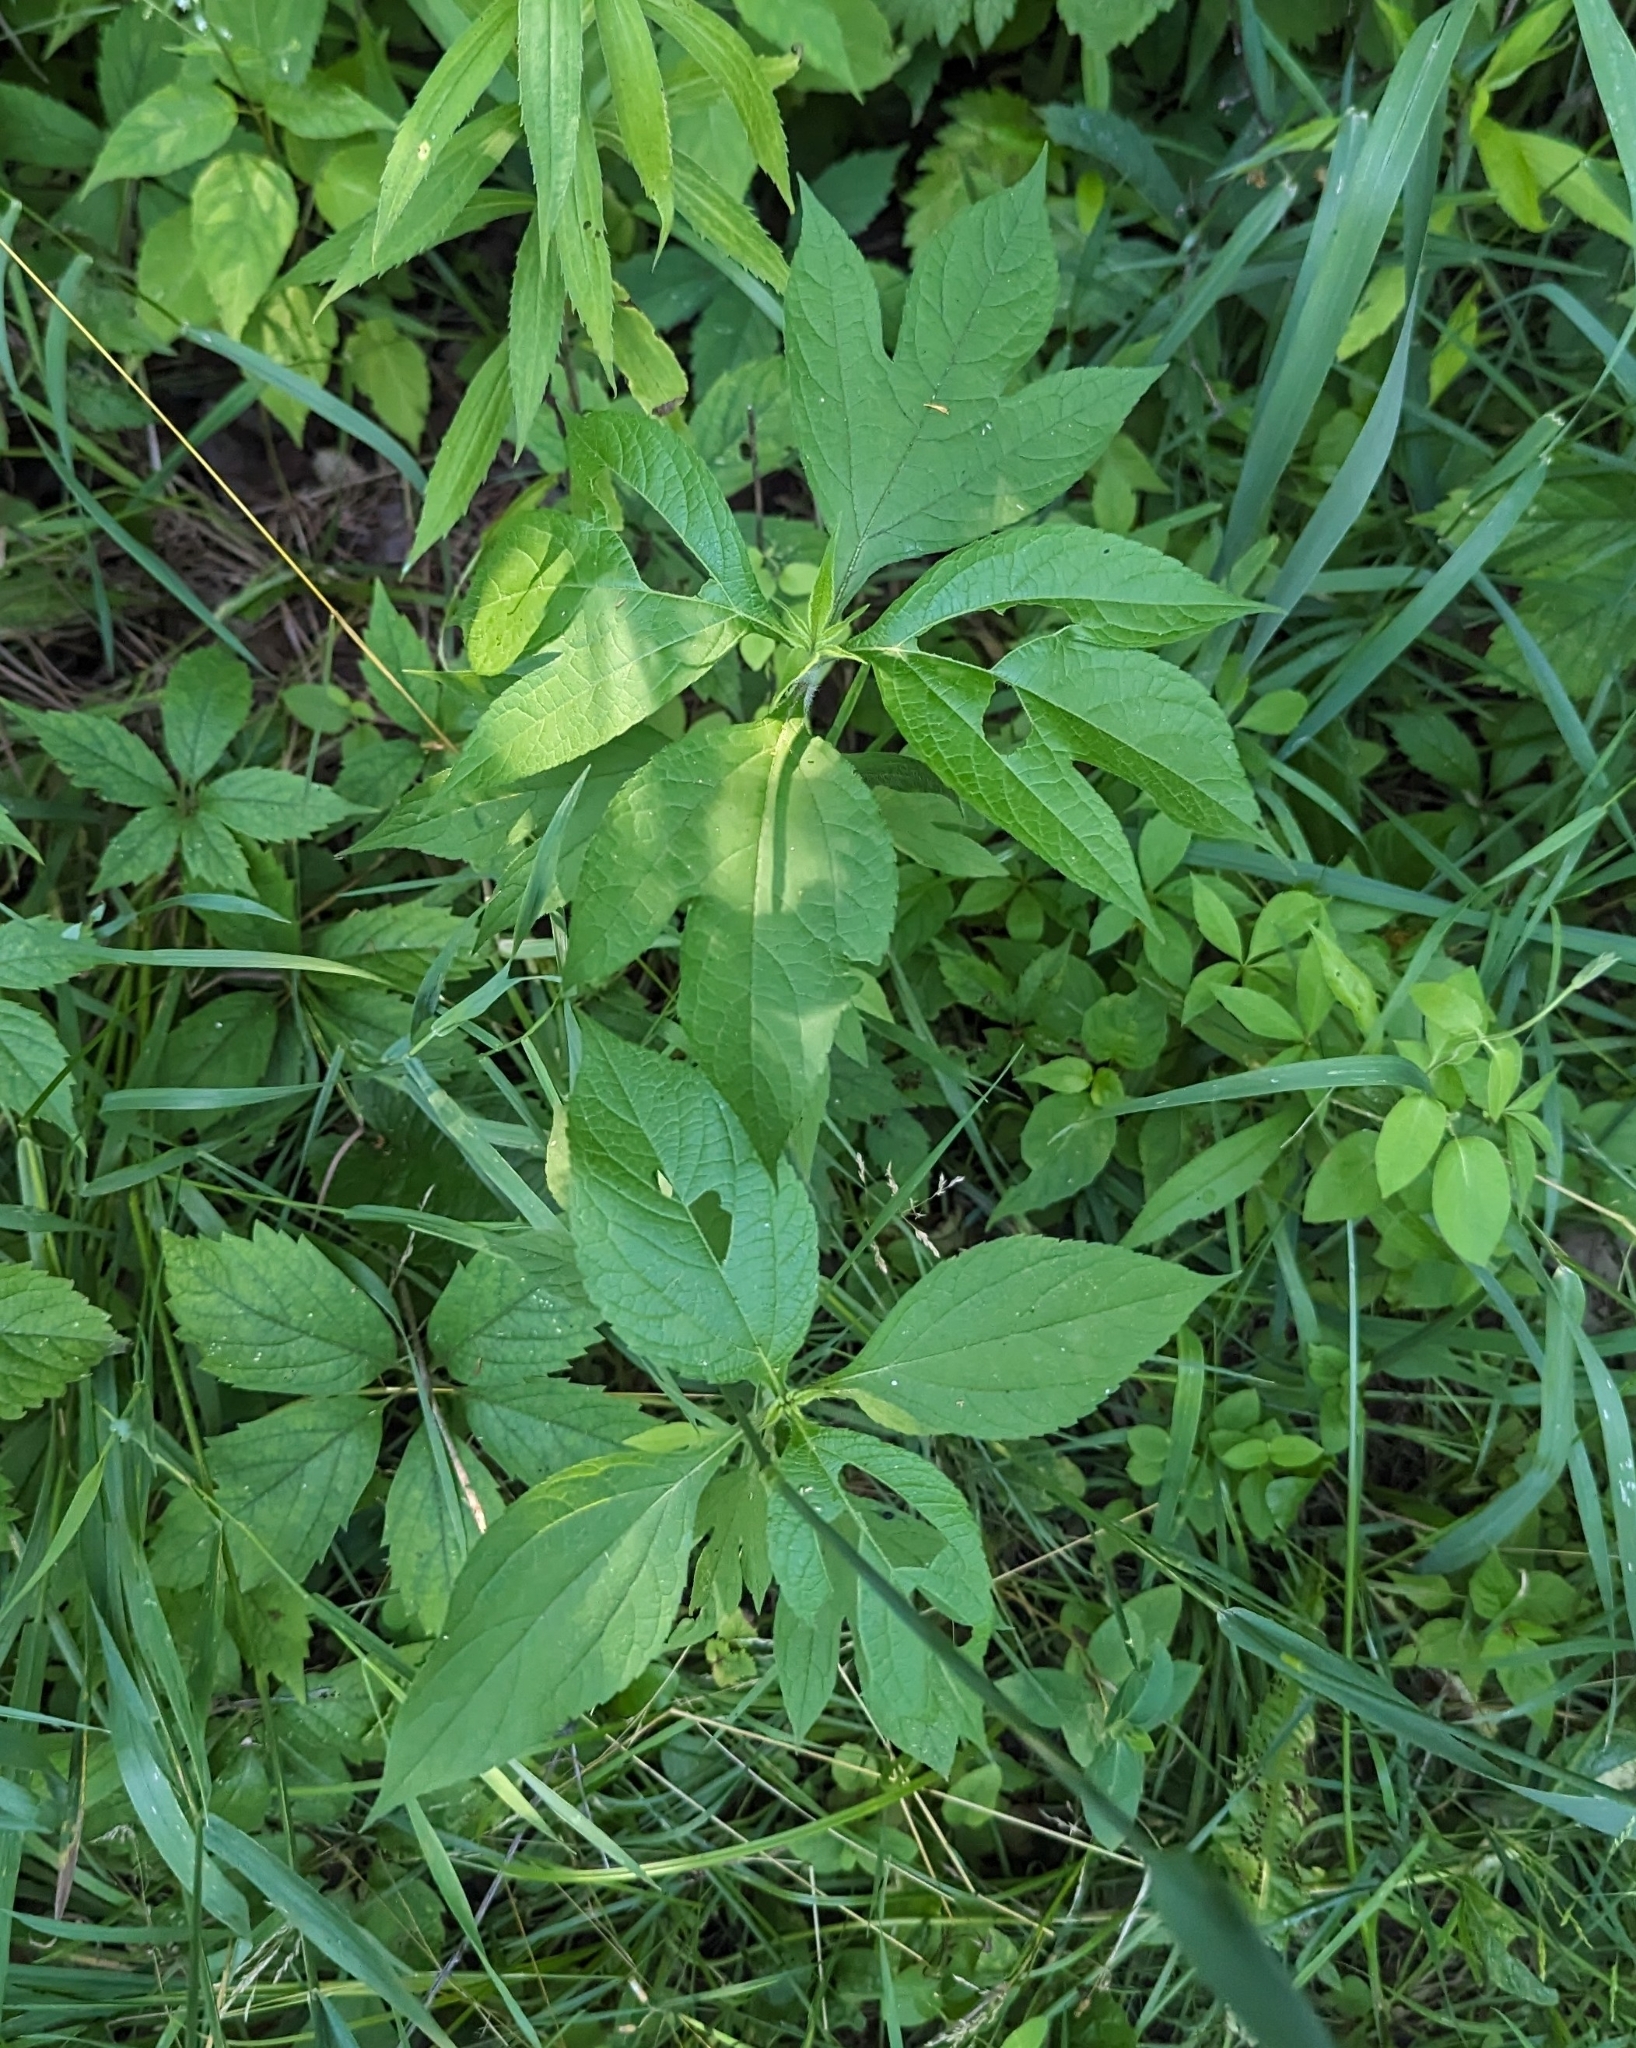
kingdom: Plantae
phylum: Tracheophyta
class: Magnoliopsida
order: Asterales
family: Asteraceae
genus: Ambrosia
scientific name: Ambrosia trifida
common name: Giant ragweed
